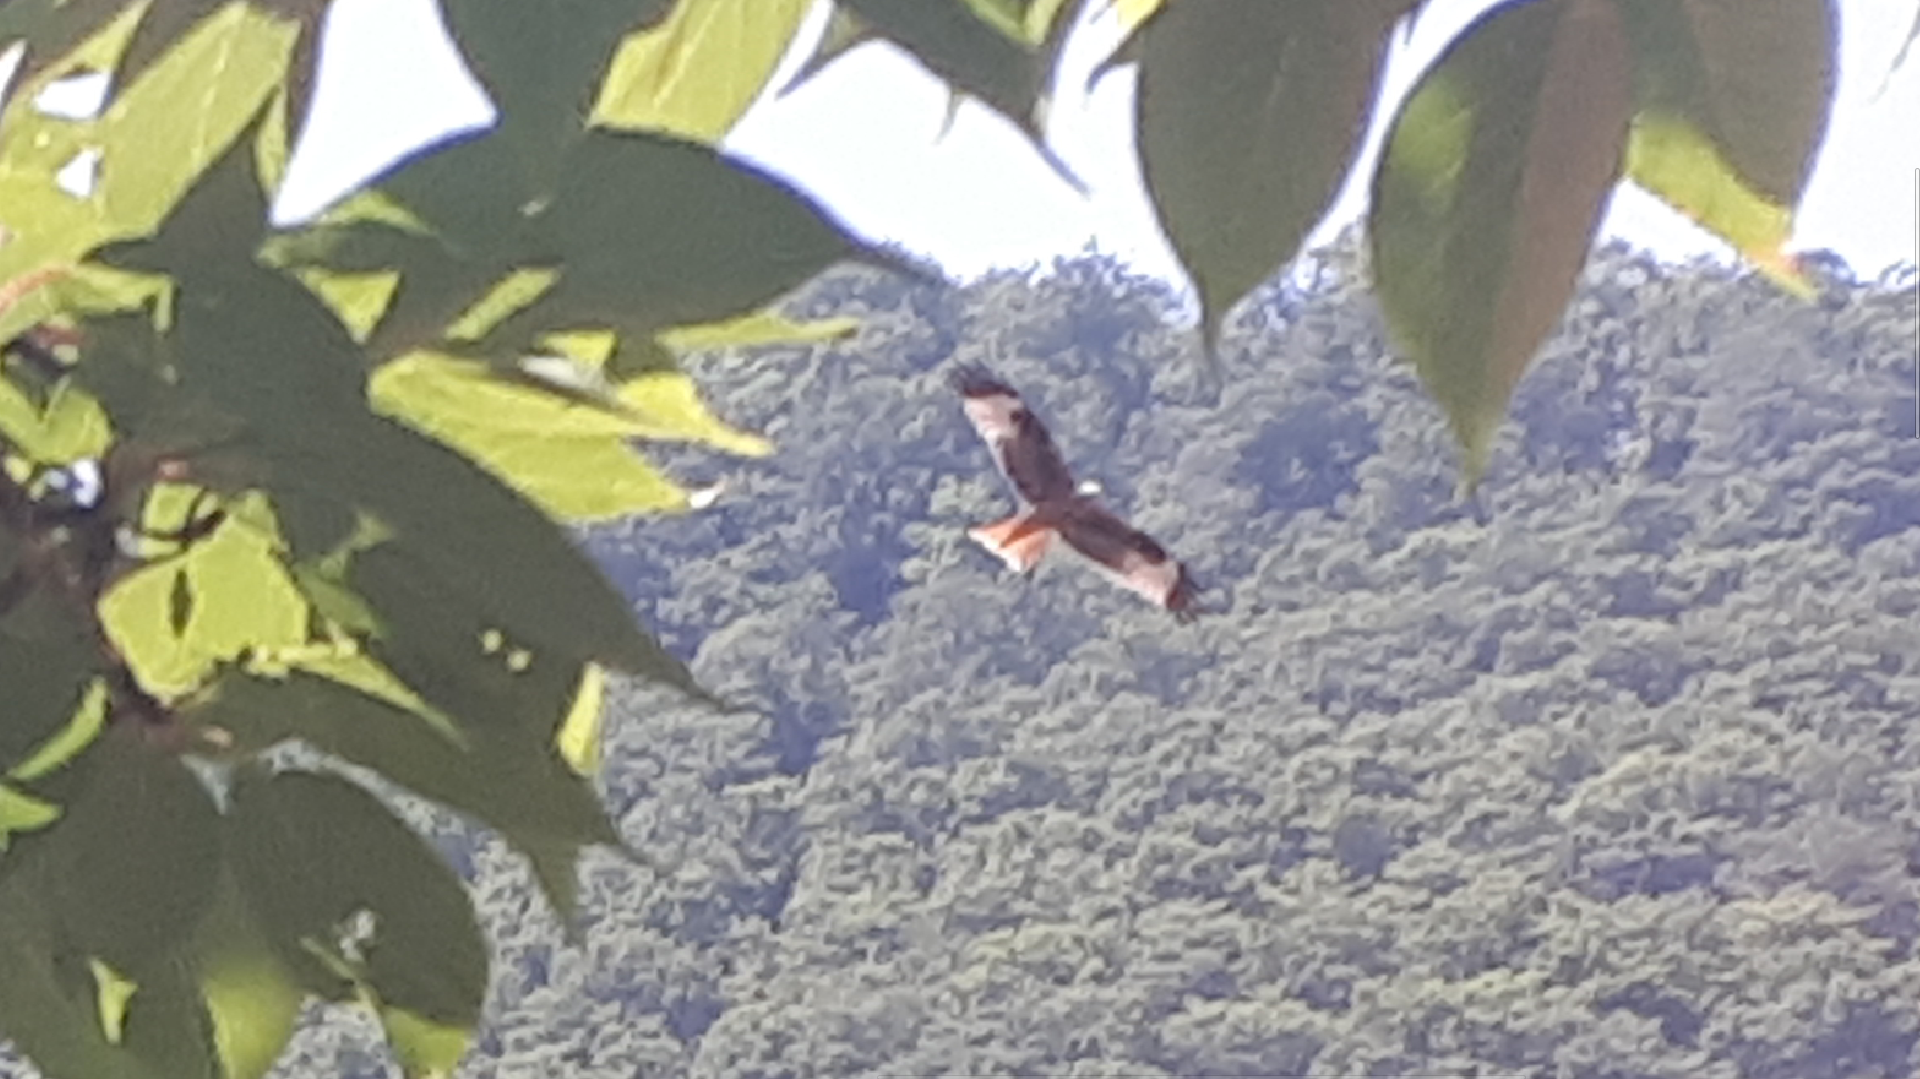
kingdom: Animalia
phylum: Chordata
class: Aves
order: Accipitriformes
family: Accipitridae
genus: Milvus
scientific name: Milvus milvus
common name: Red kite
